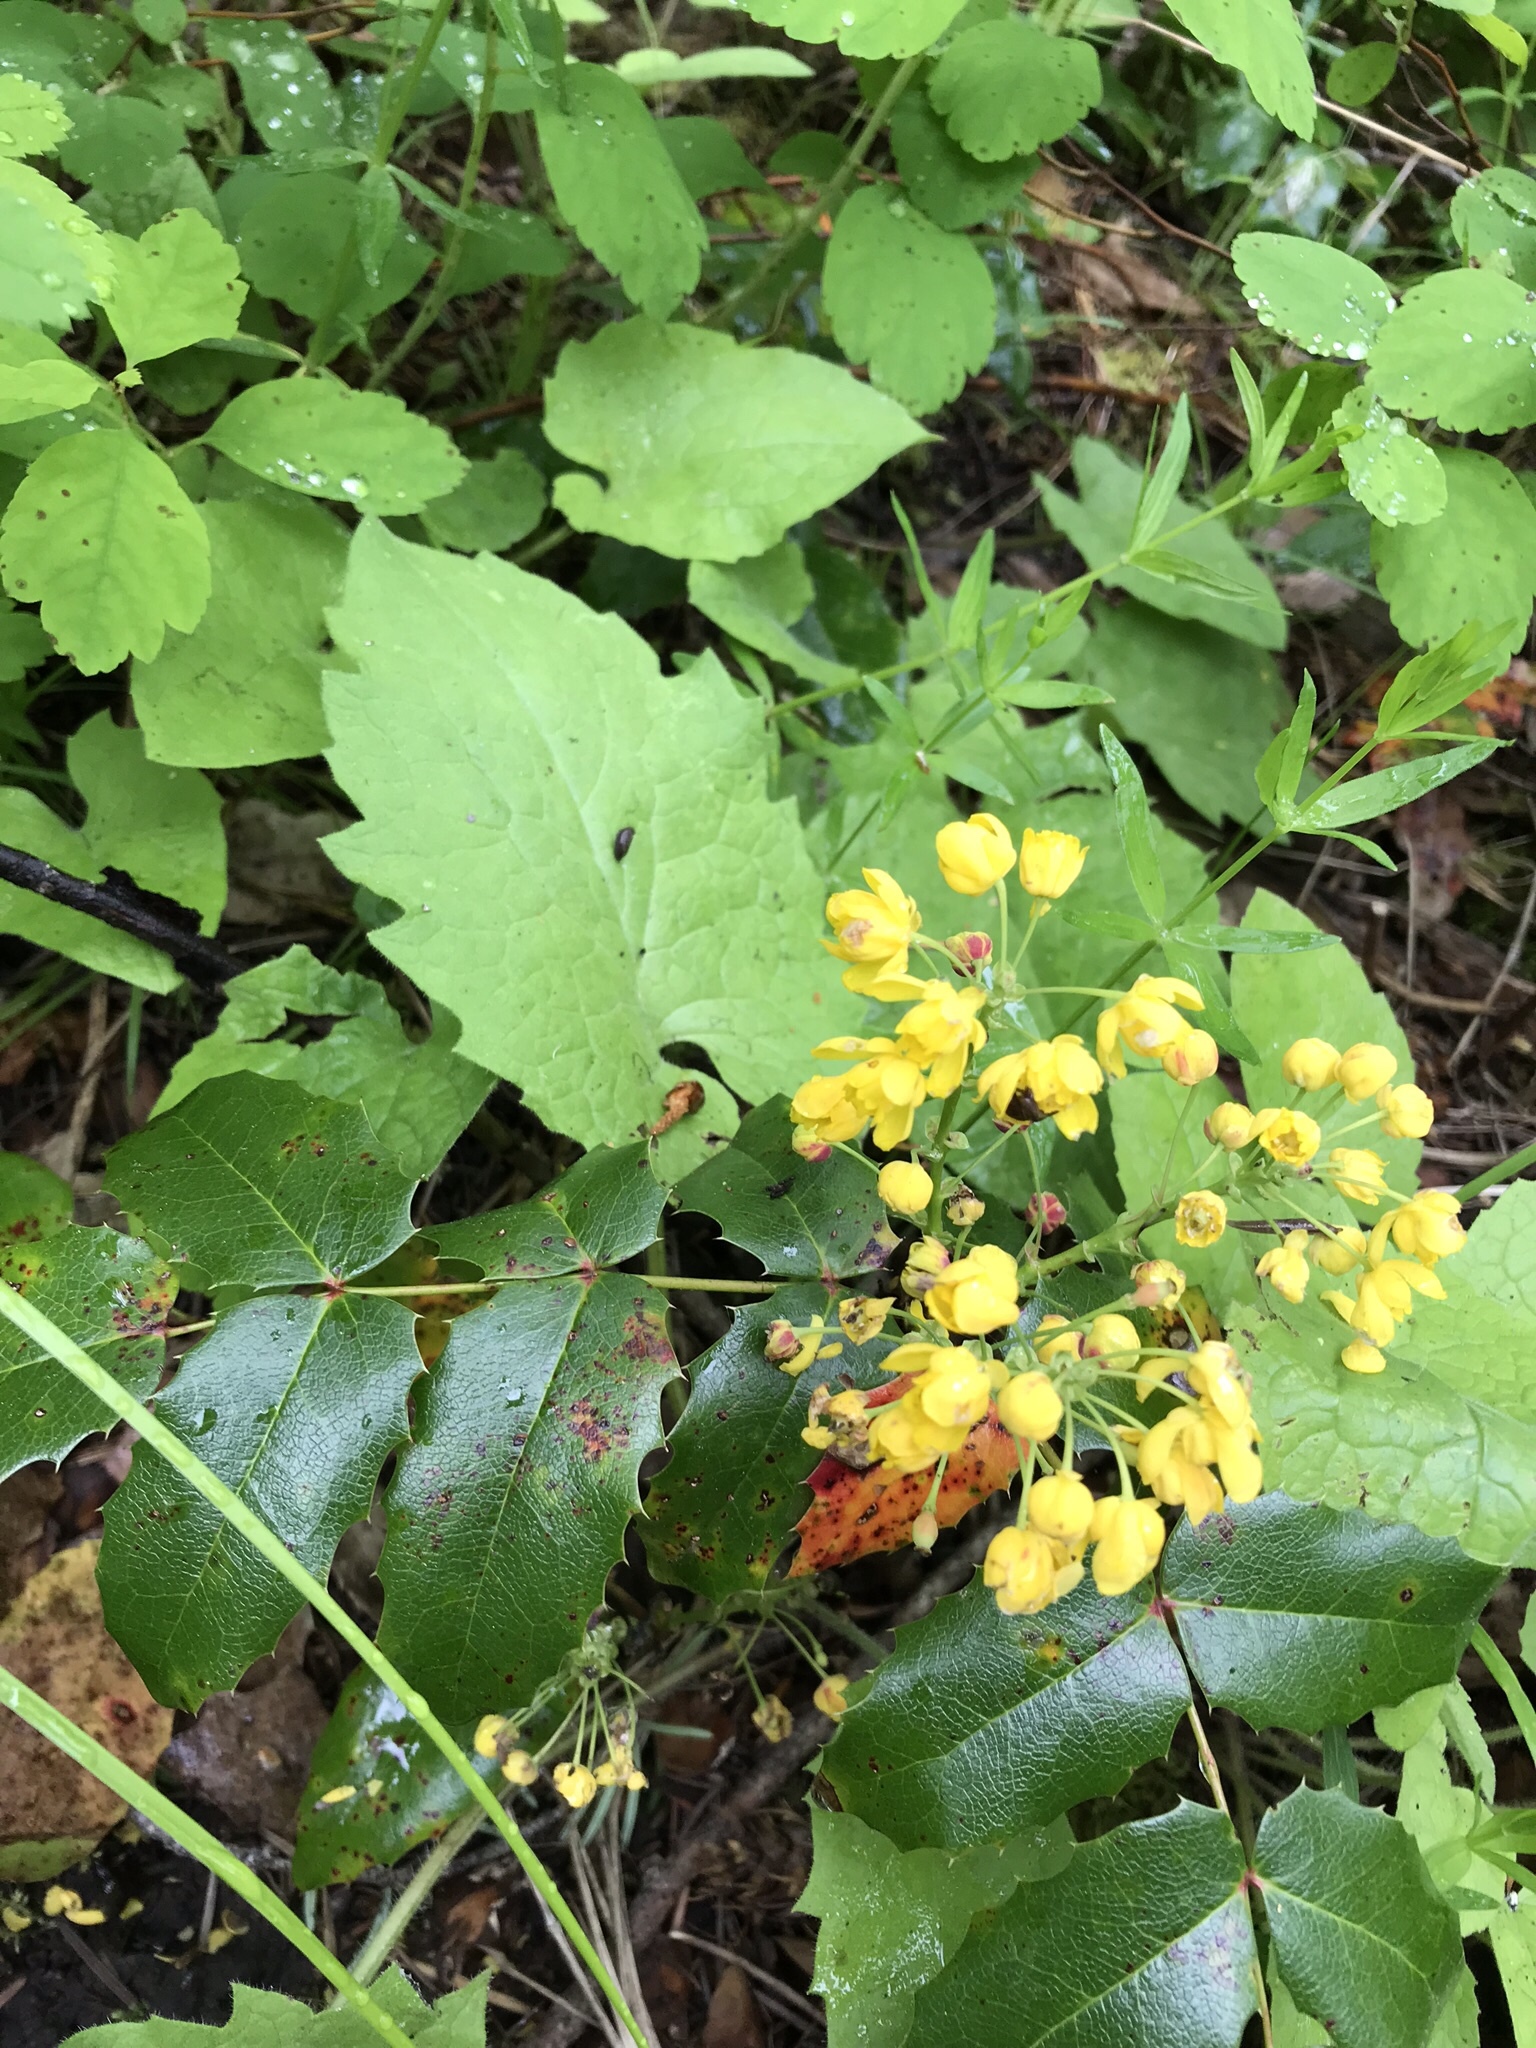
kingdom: Plantae
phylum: Tracheophyta
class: Magnoliopsida
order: Ranunculales
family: Berberidaceae
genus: Mahonia
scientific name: Mahonia aquifolium
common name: Oregon-grape
